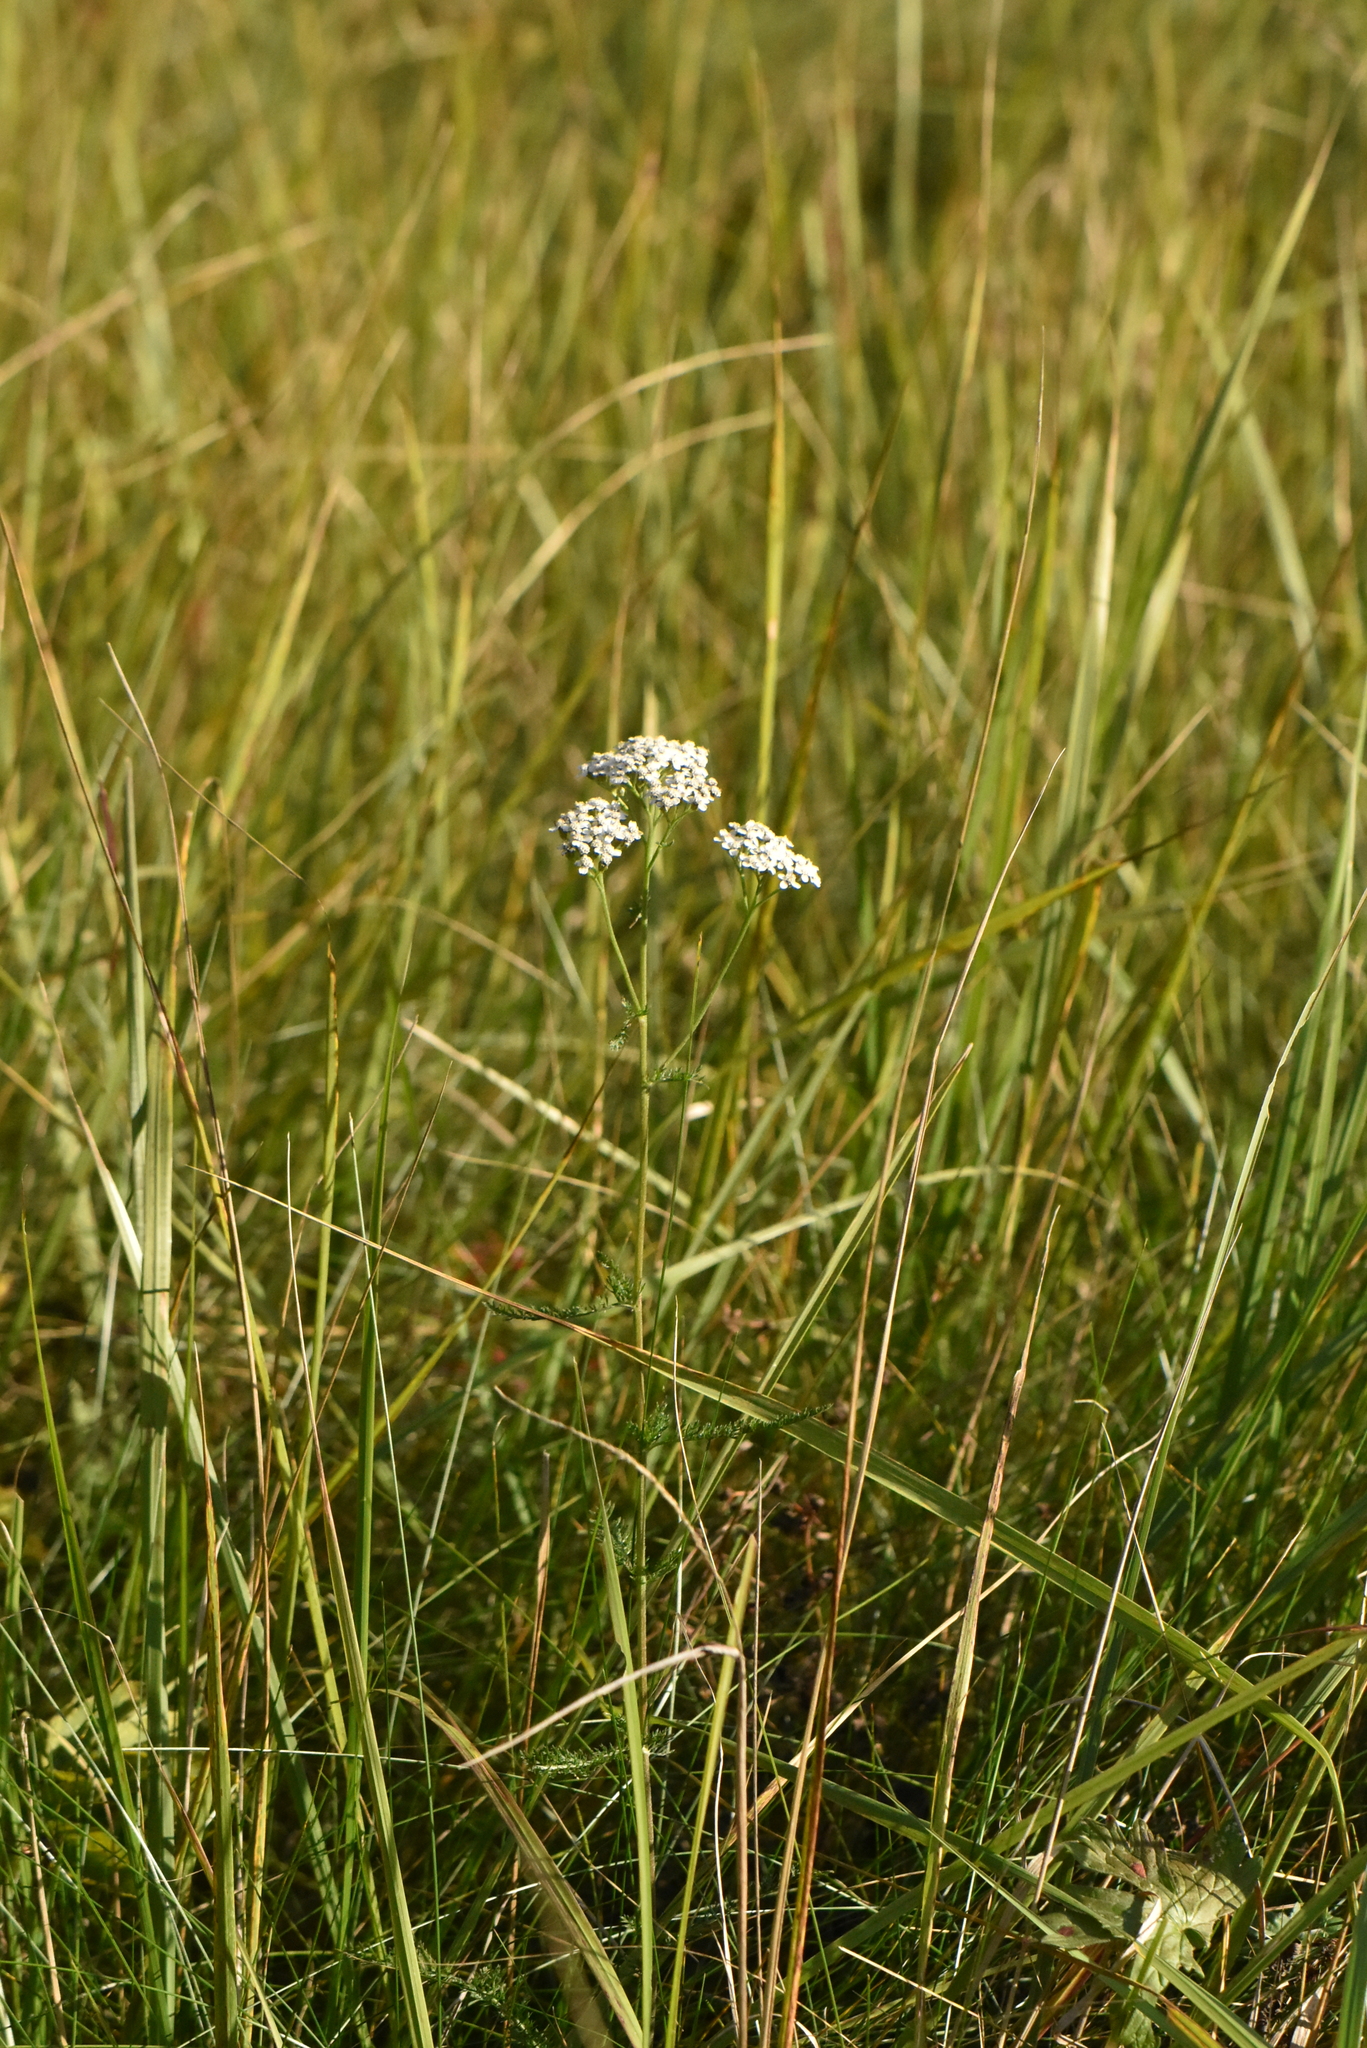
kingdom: Plantae
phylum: Tracheophyta
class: Magnoliopsida
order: Asterales
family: Asteraceae
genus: Achillea
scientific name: Achillea millefolium
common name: Yarrow
